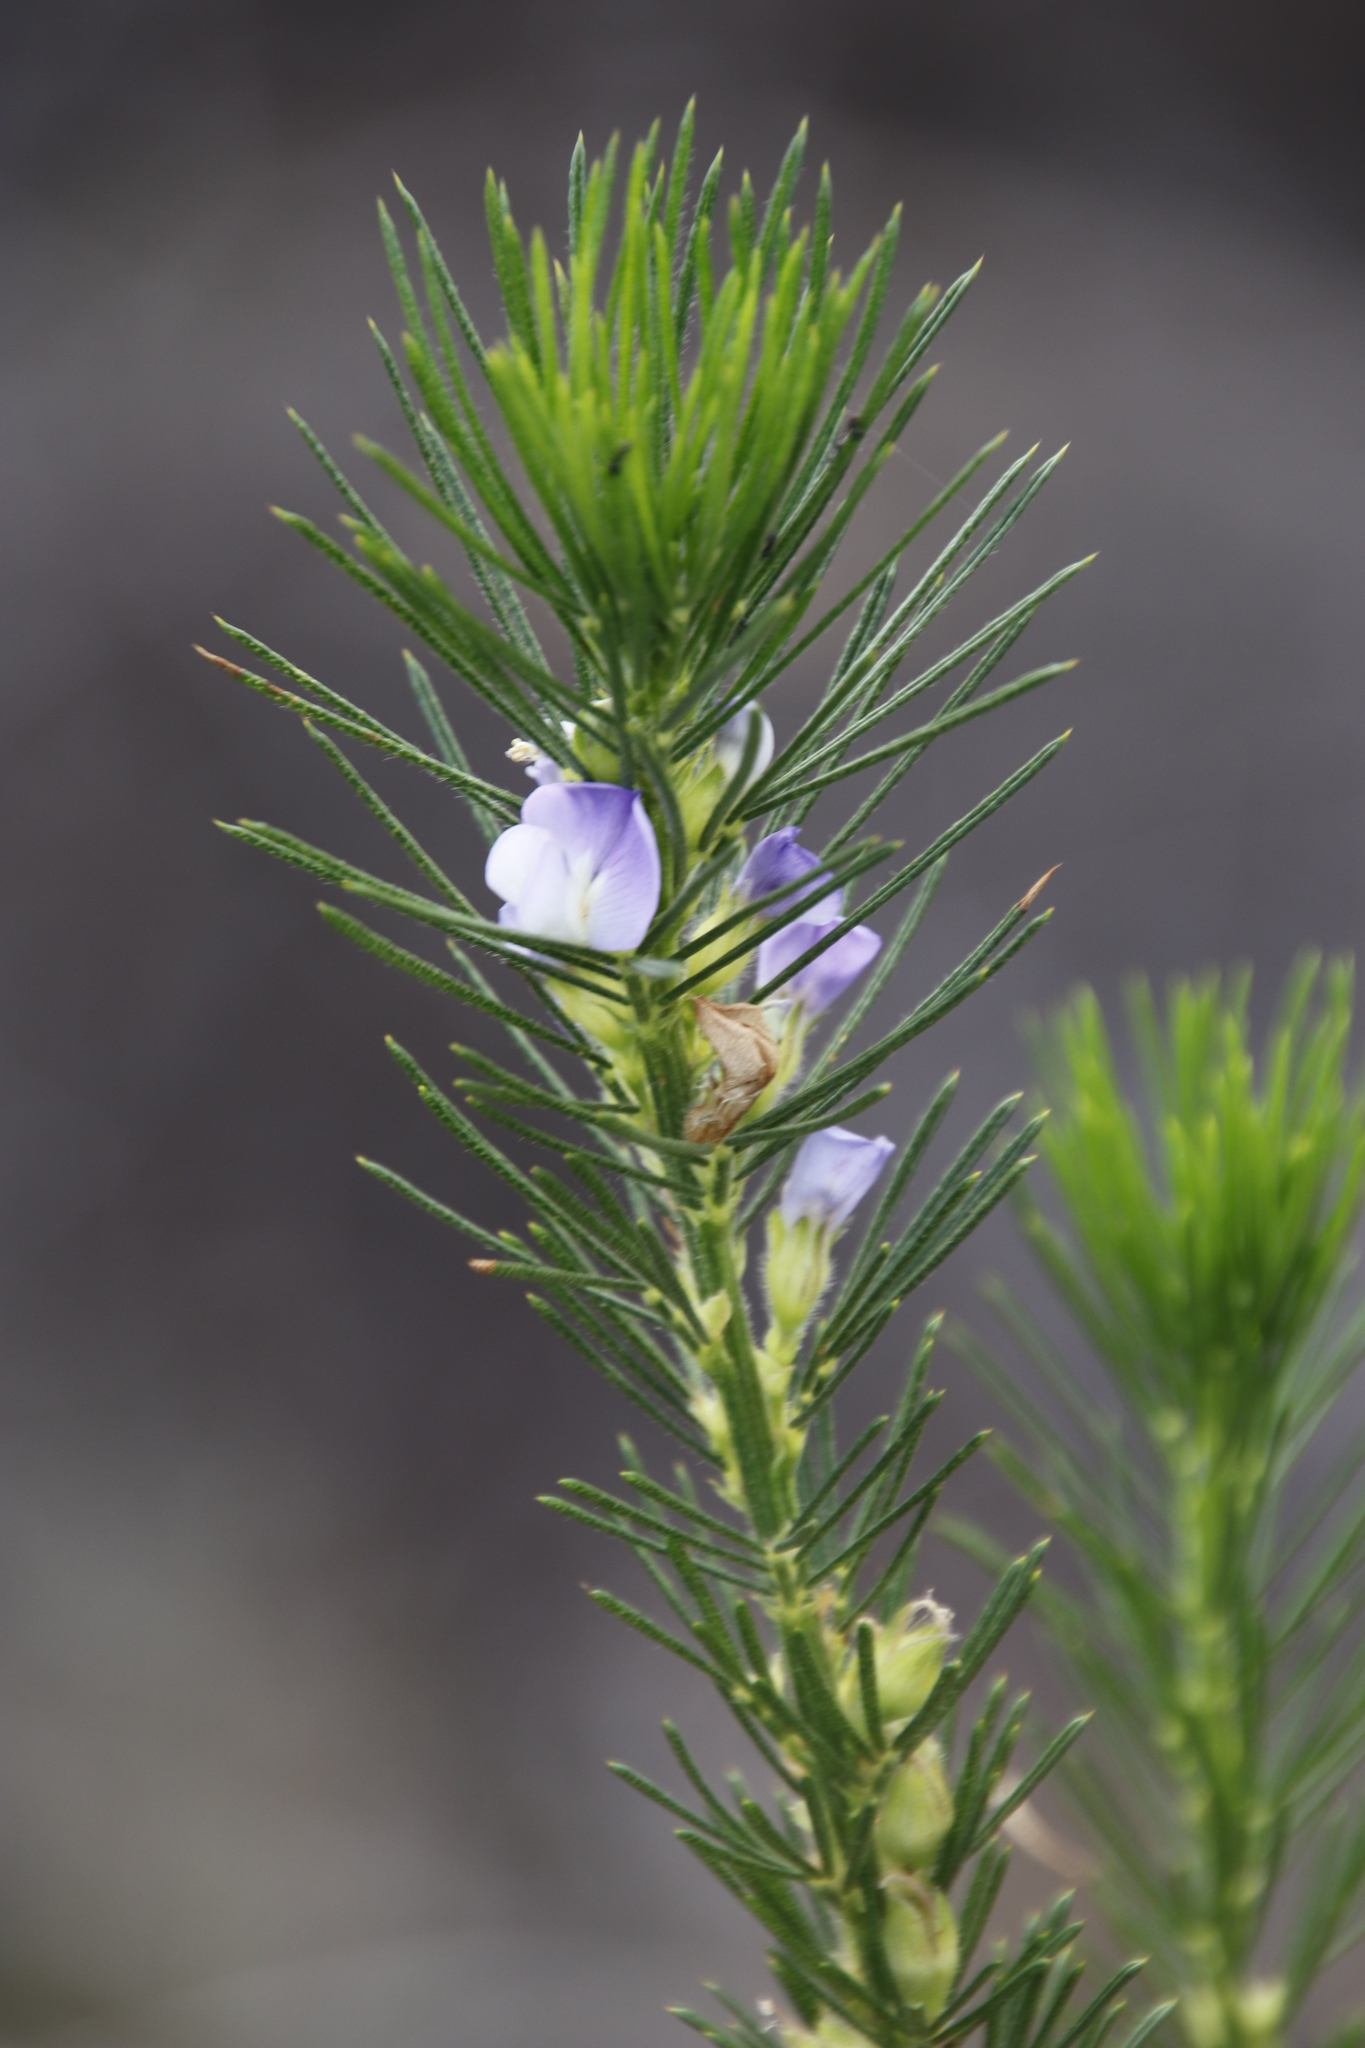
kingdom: Plantae
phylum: Tracheophyta
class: Magnoliopsida
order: Fabales
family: Fabaceae
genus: Psoralea
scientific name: Psoralea pinnata
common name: African scurfpea
